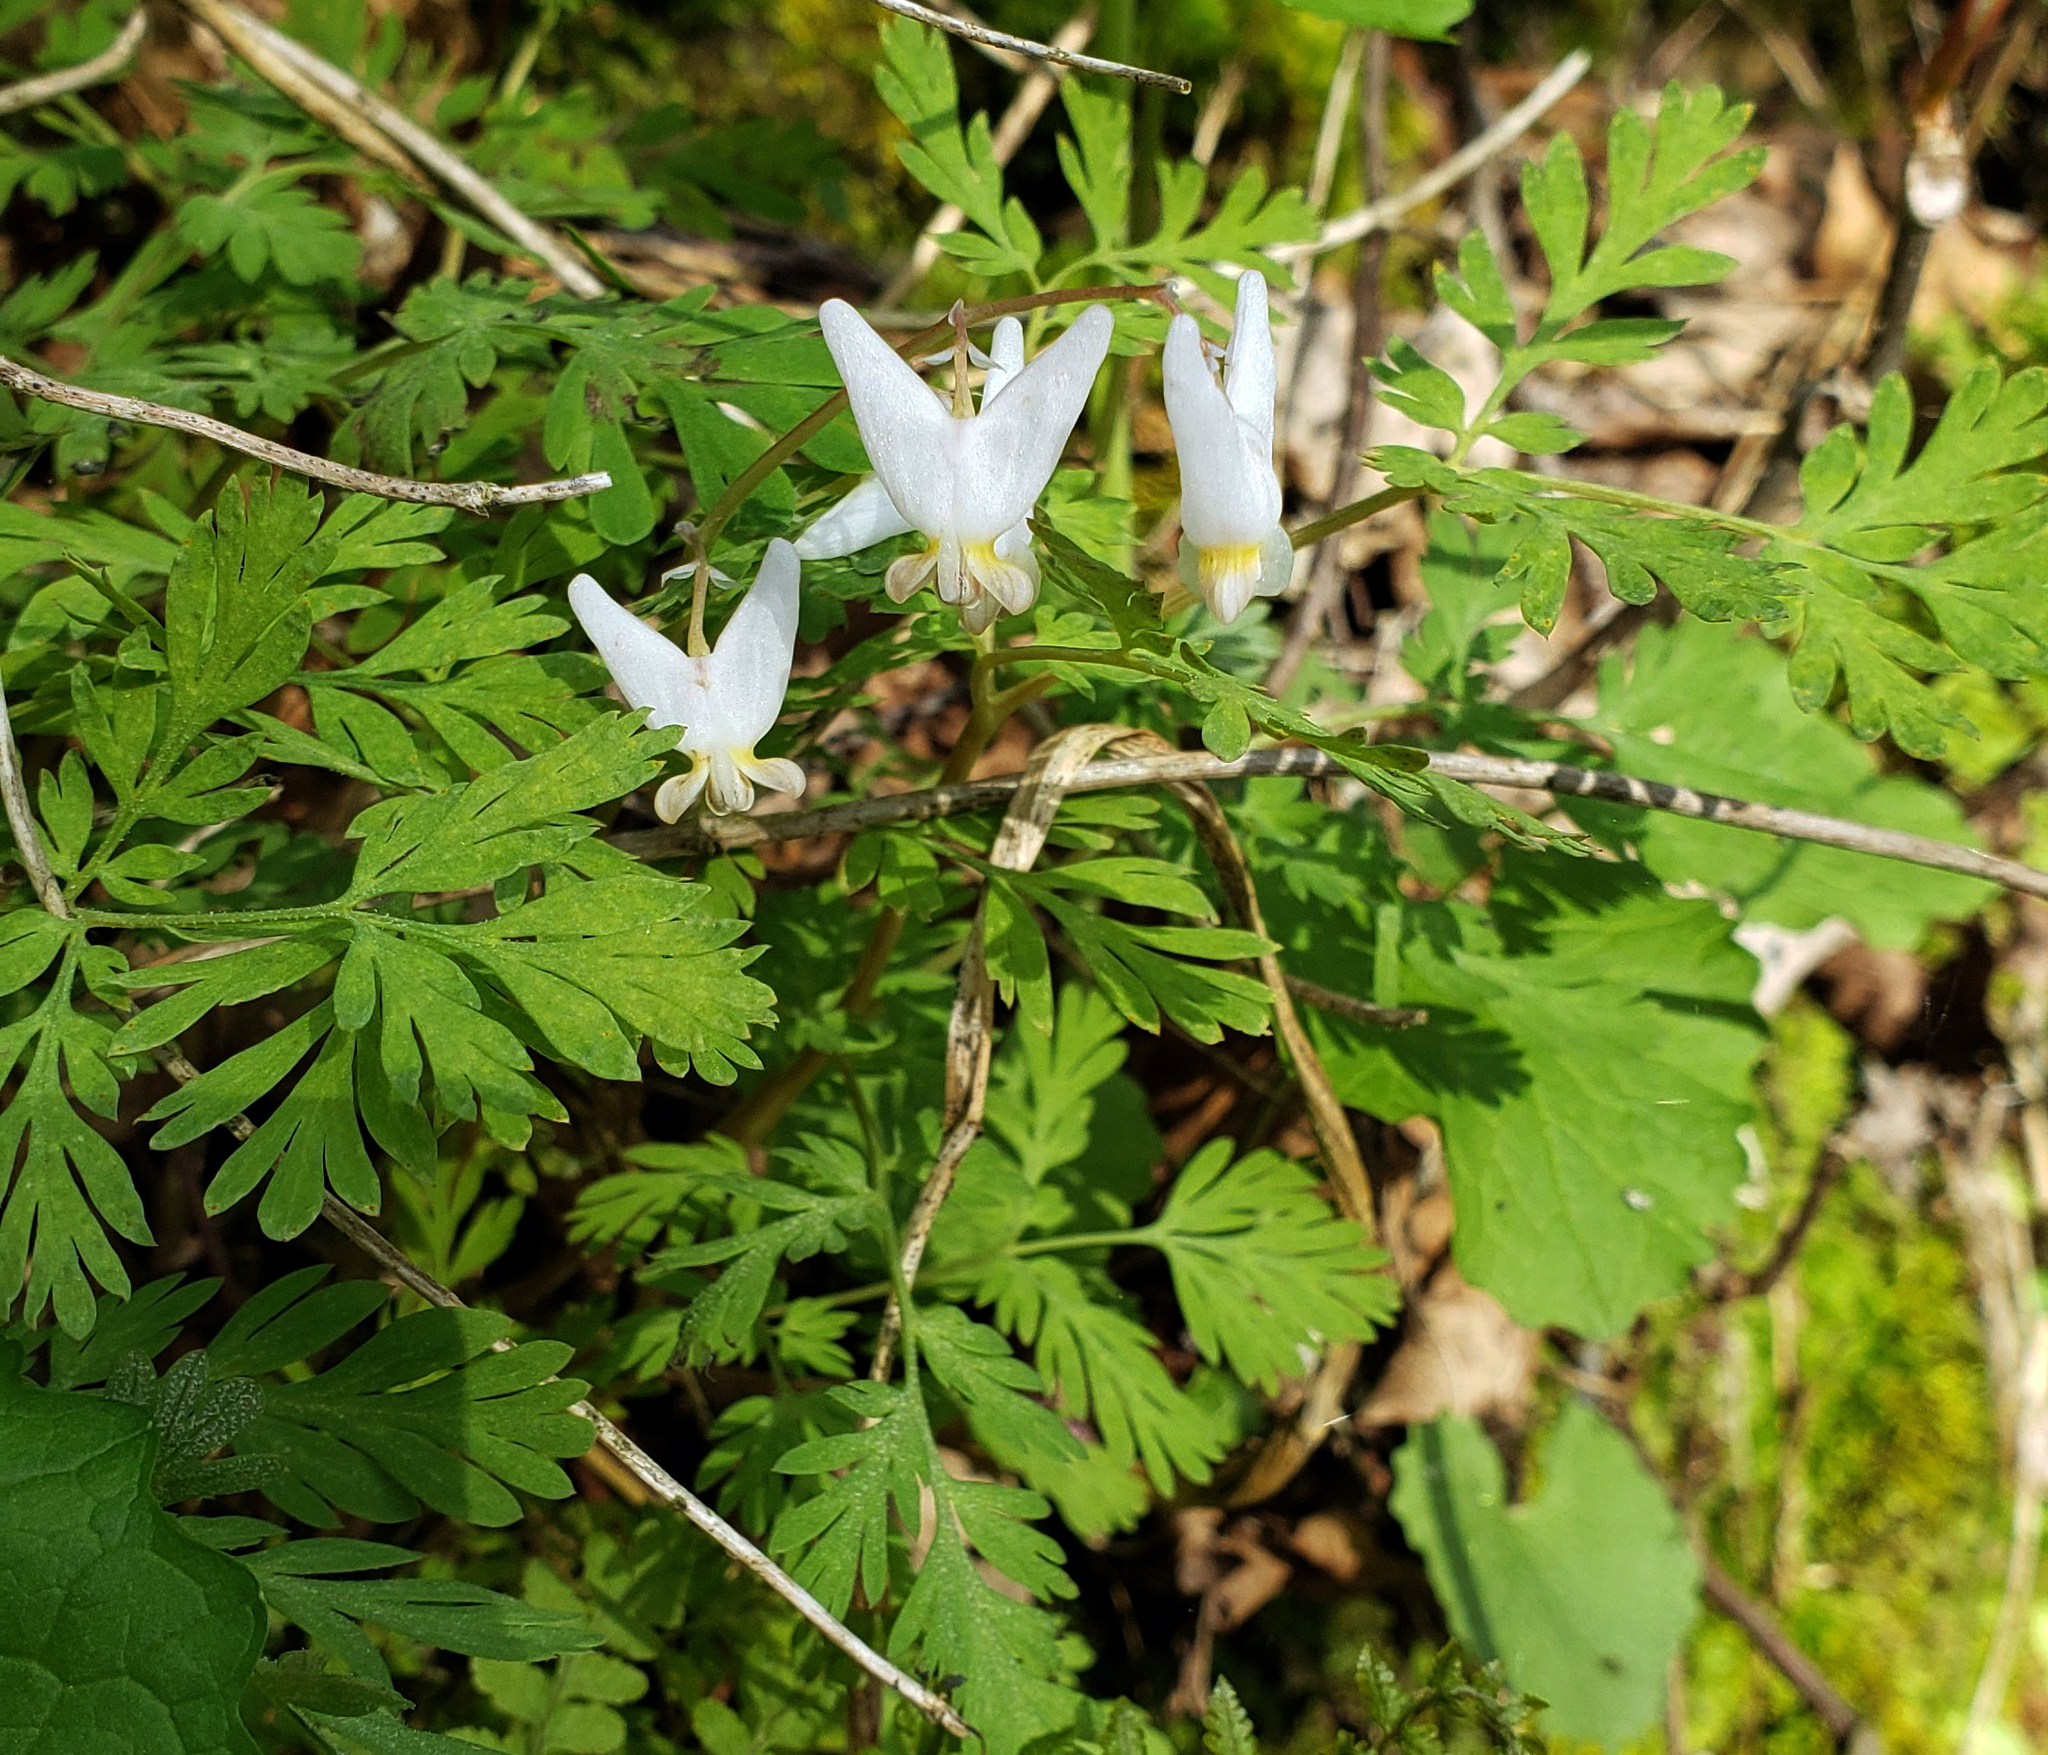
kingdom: Plantae
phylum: Tracheophyta
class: Magnoliopsida
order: Ranunculales
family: Papaveraceae
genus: Dicentra
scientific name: Dicentra cucullaria
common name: Dutchman's breeches
